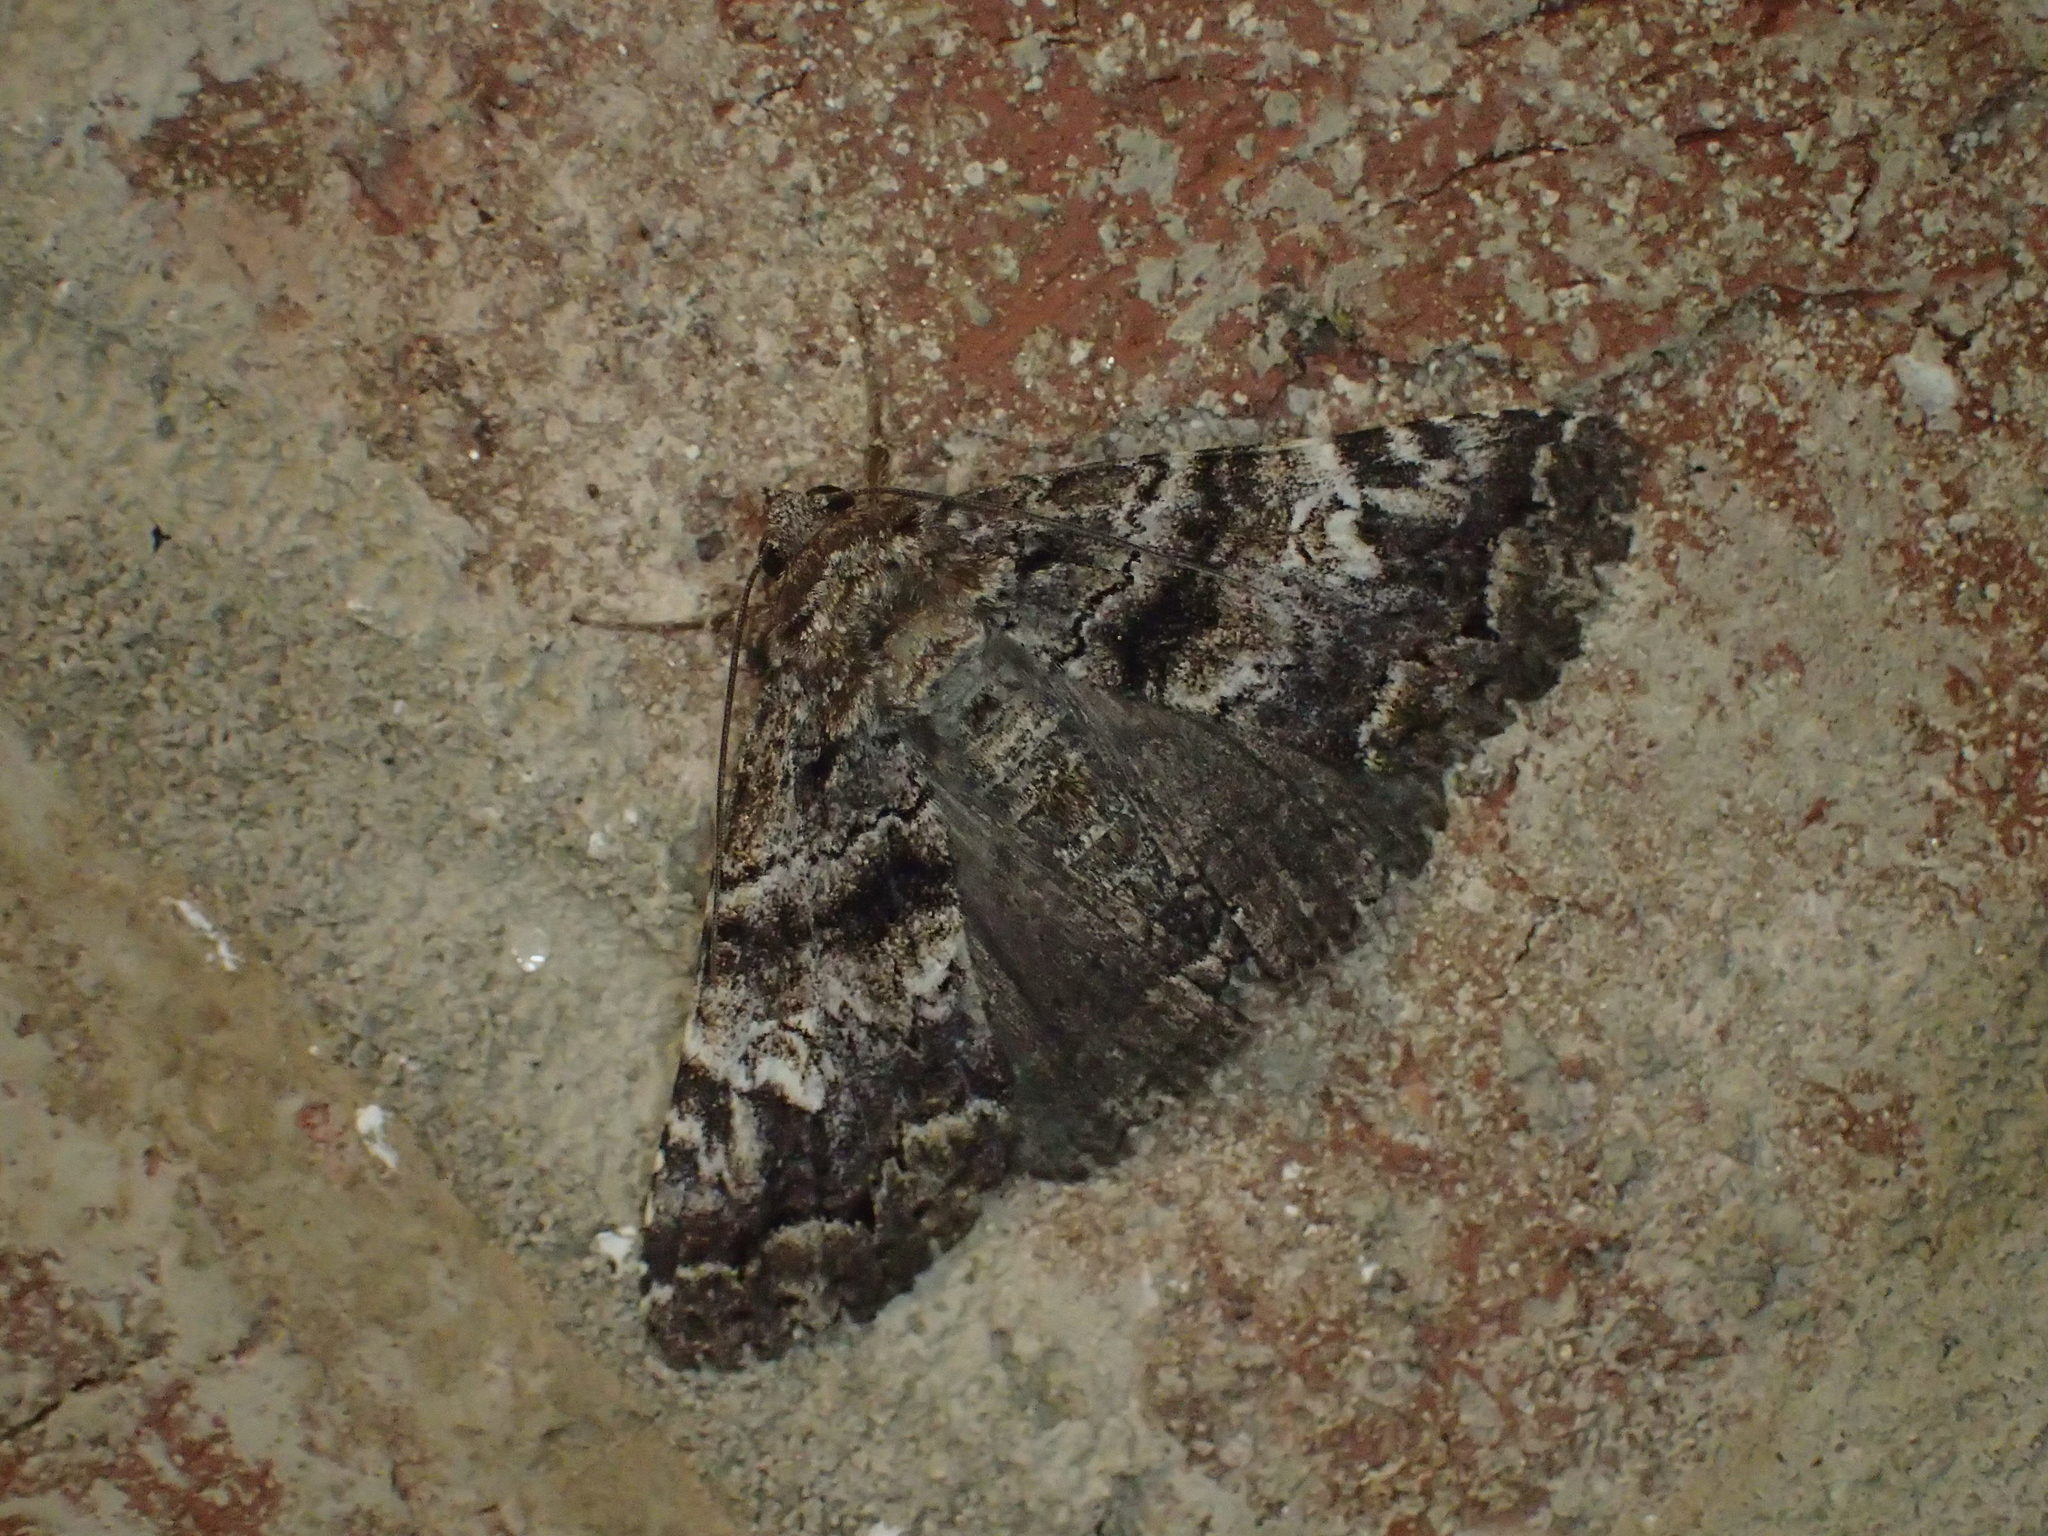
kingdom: Animalia
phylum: Arthropoda
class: Insecta
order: Lepidoptera
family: Erebidae
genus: Metria
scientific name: Metria amella
